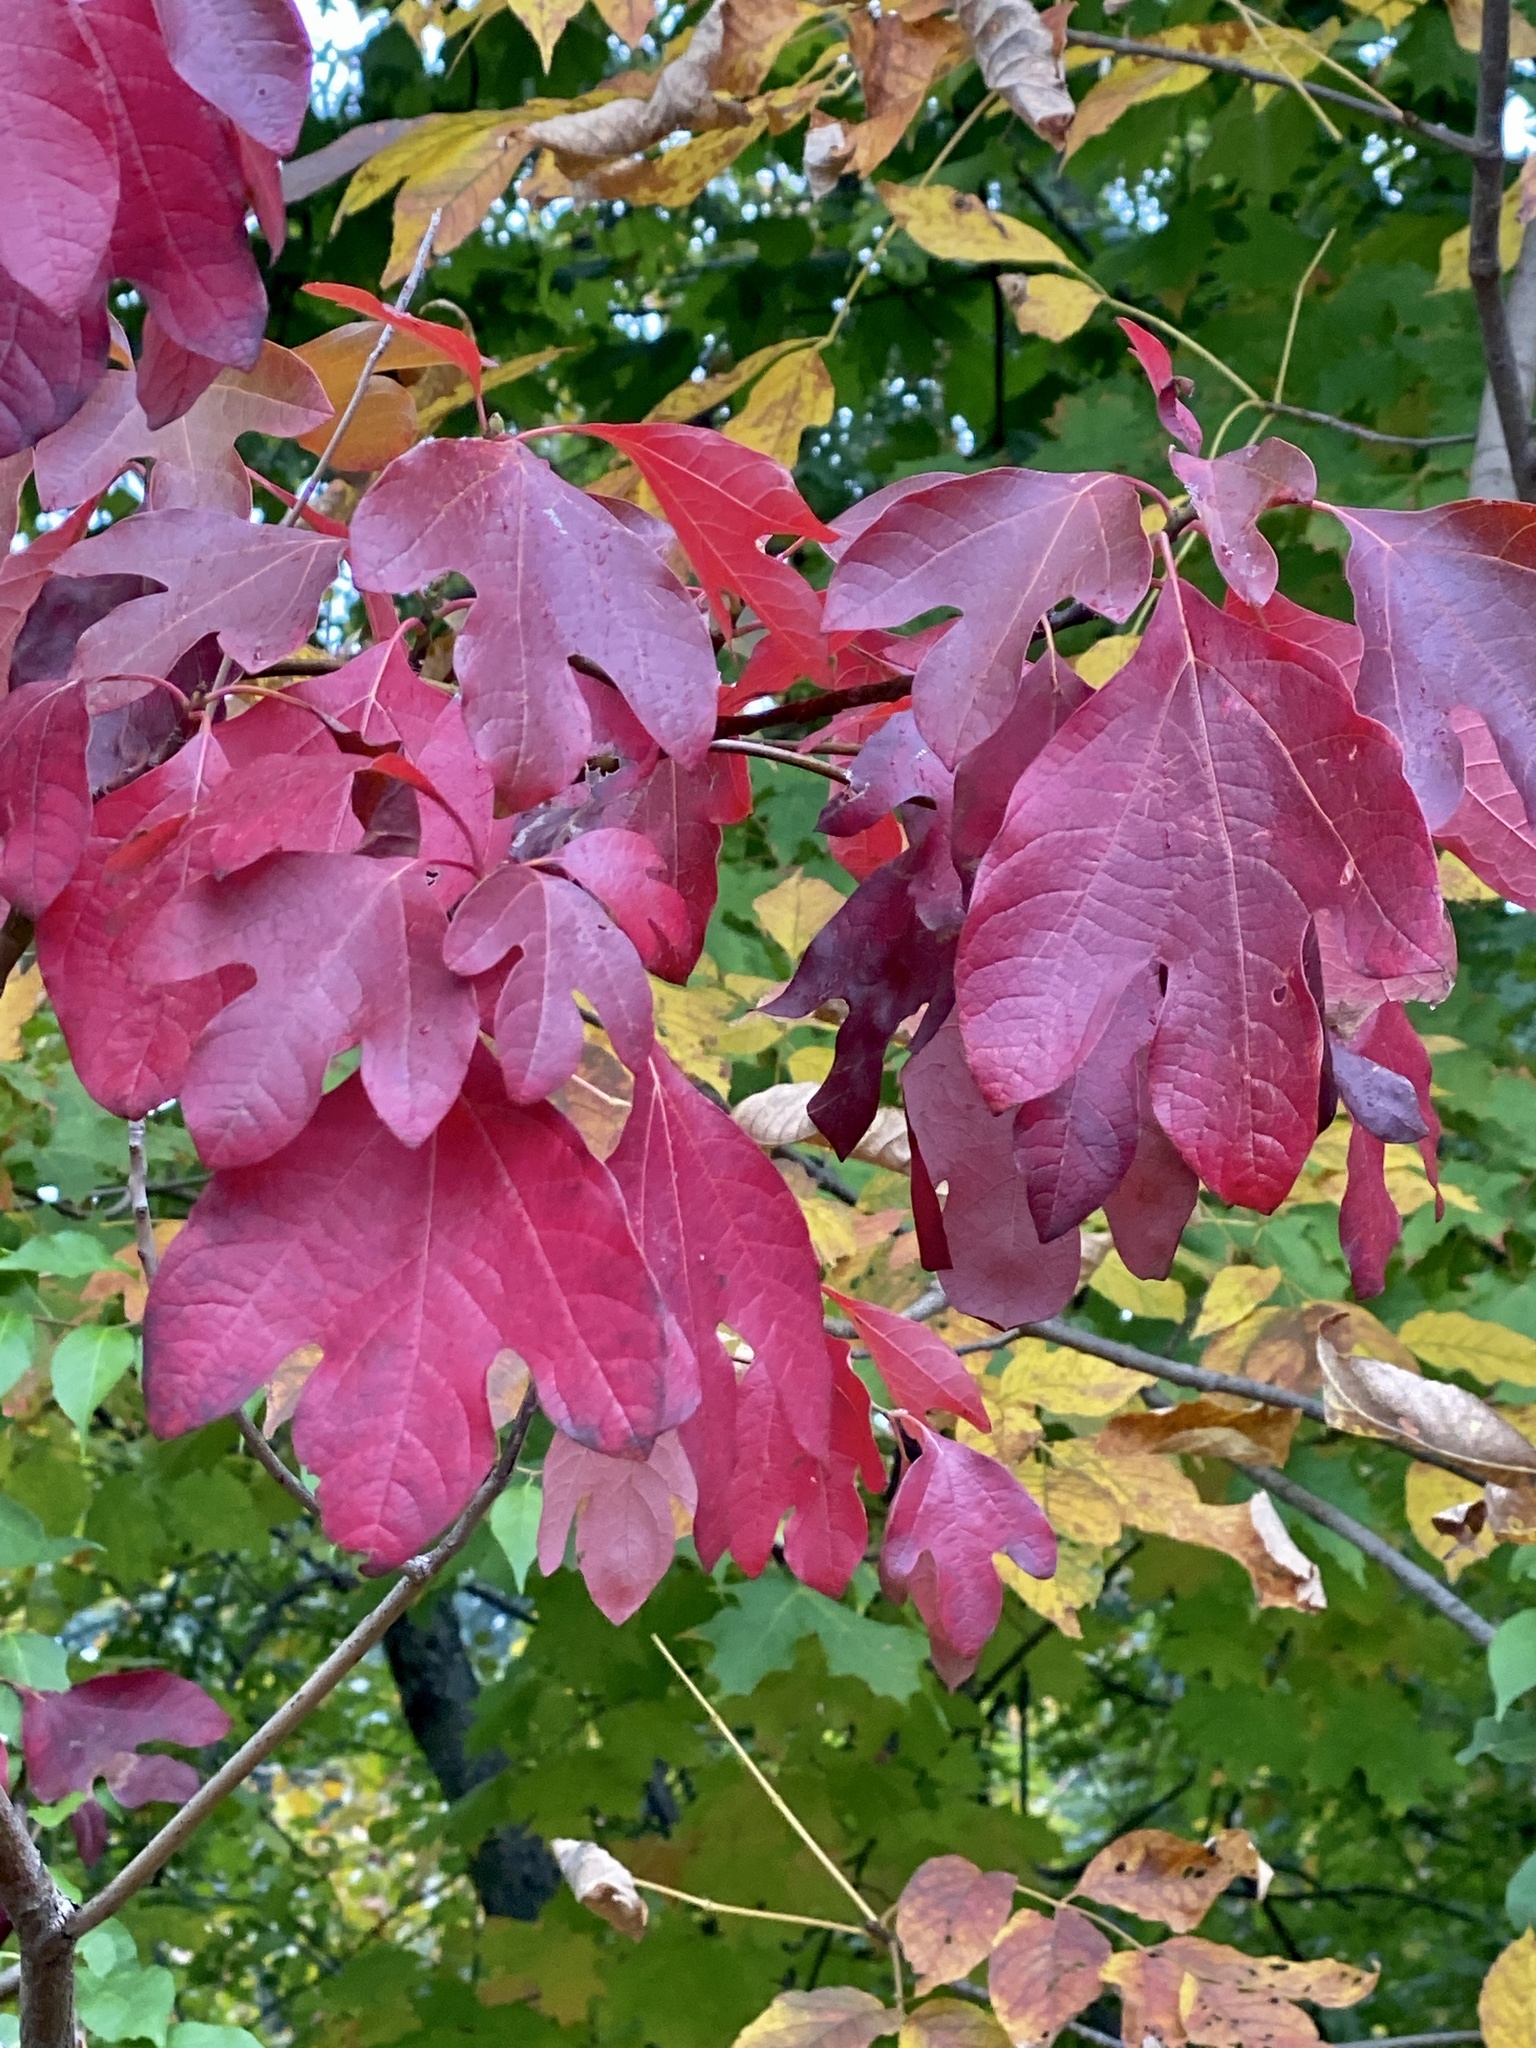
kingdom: Plantae
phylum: Tracheophyta
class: Magnoliopsida
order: Laurales
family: Lauraceae
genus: Sassafras
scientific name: Sassafras albidum
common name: Sassafras
